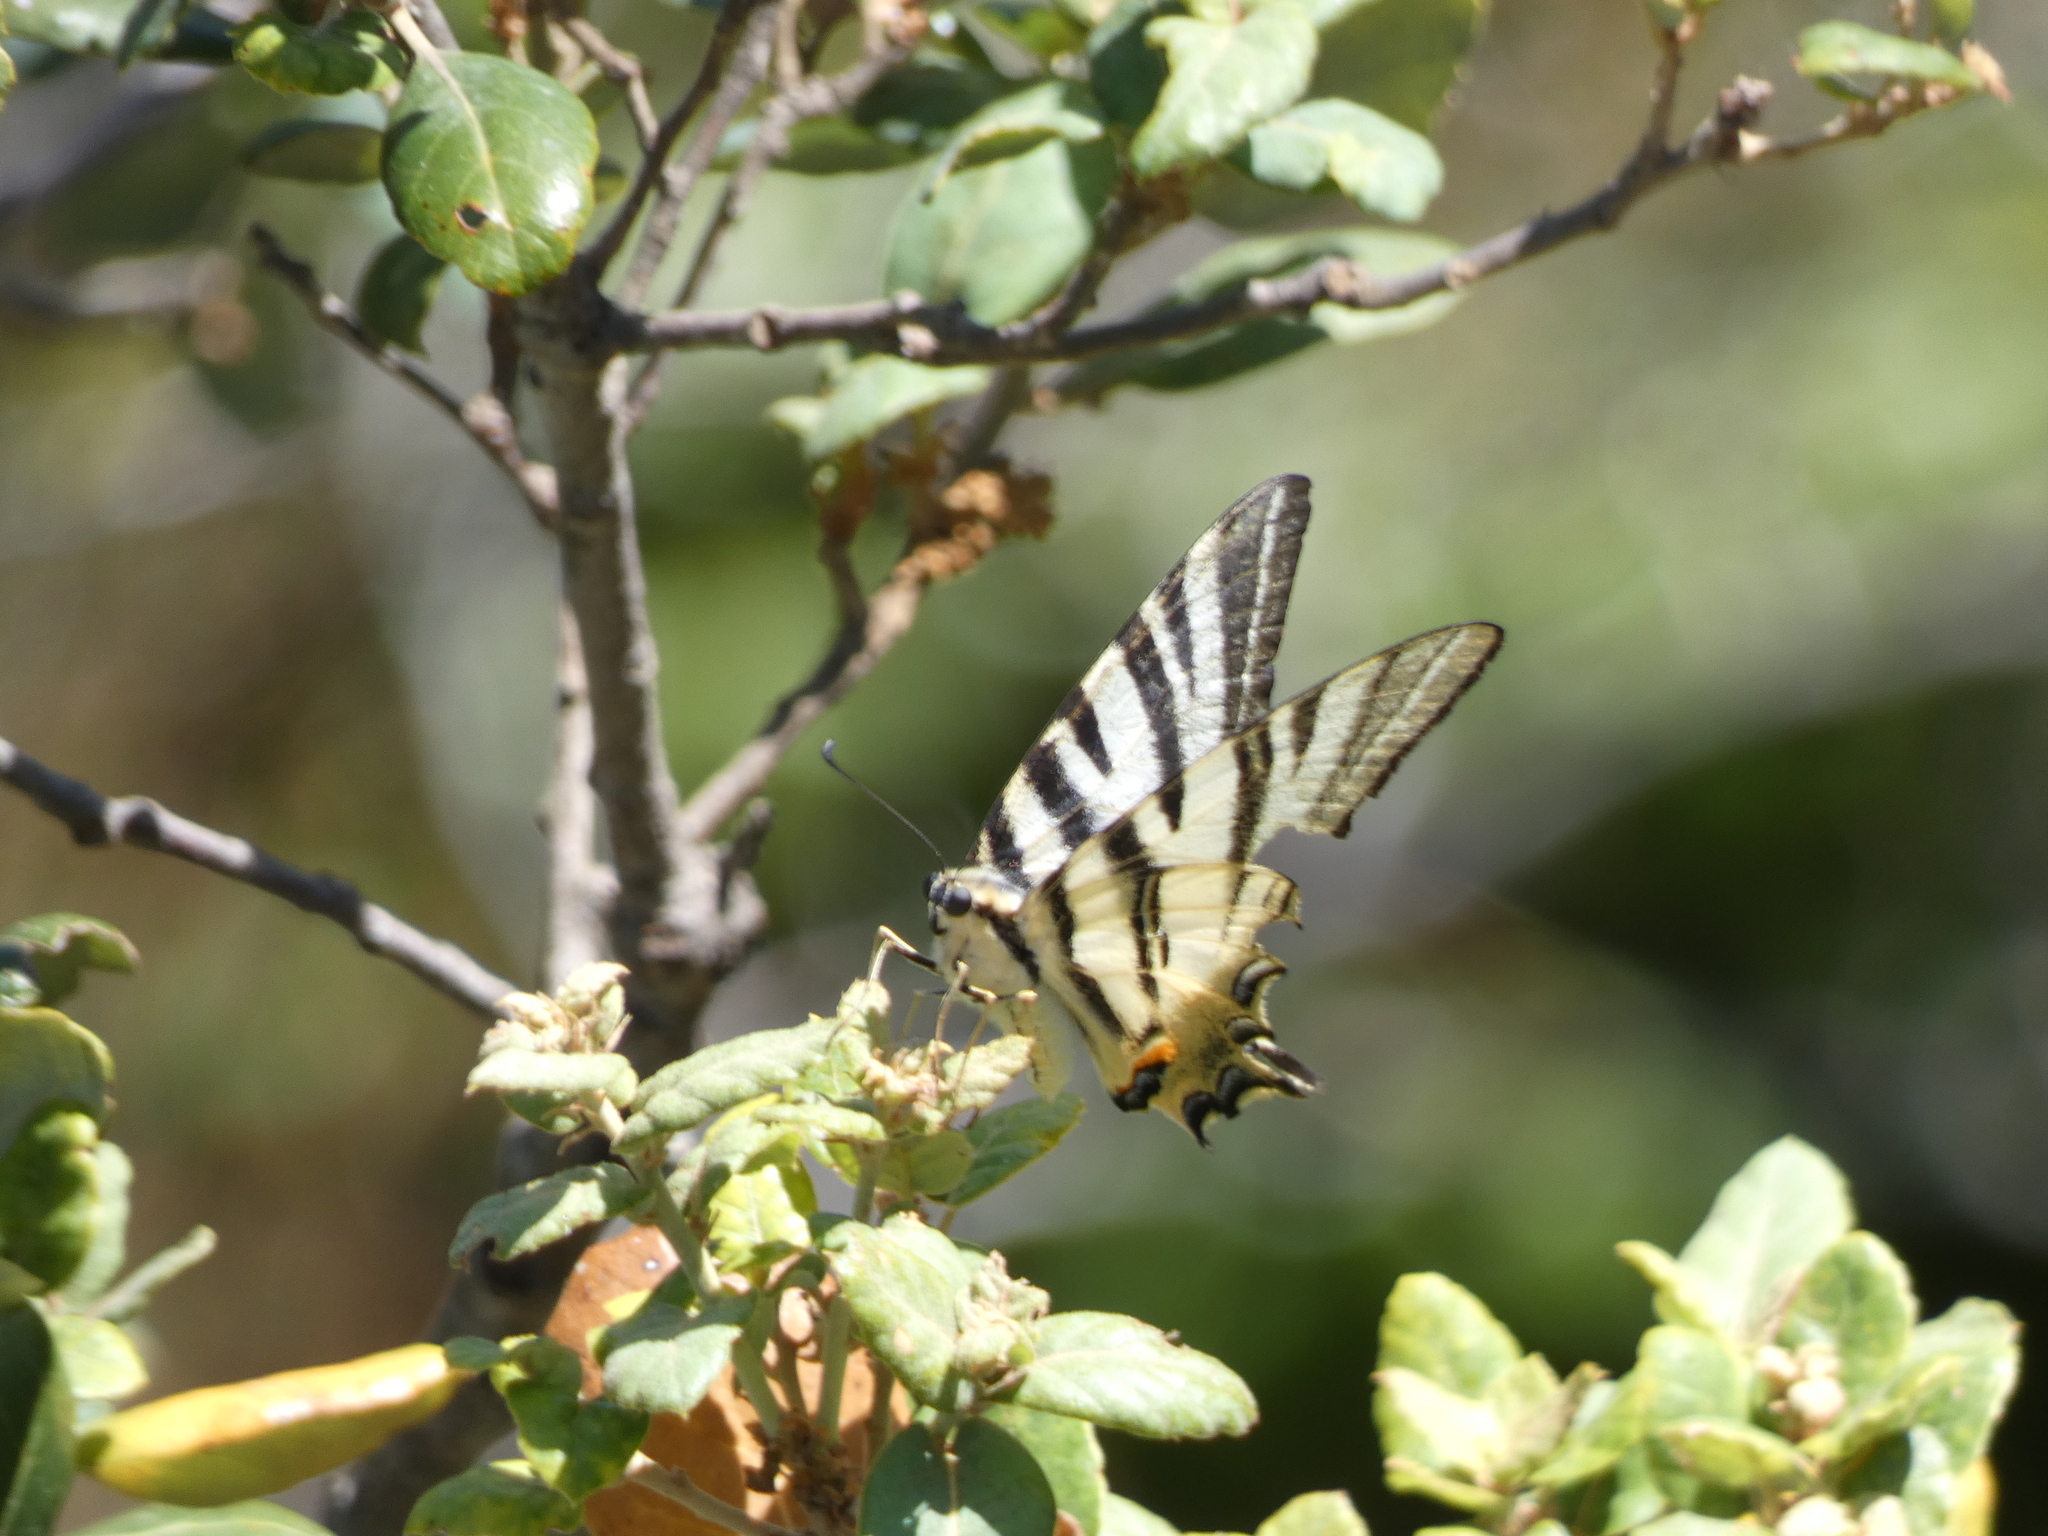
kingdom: Animalia
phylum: Arthropoda
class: Insecta
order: Lepidoptera
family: Papilionidae
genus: Iphiclides
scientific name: Iphiclides podalirius
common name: Scarce swallowtail
